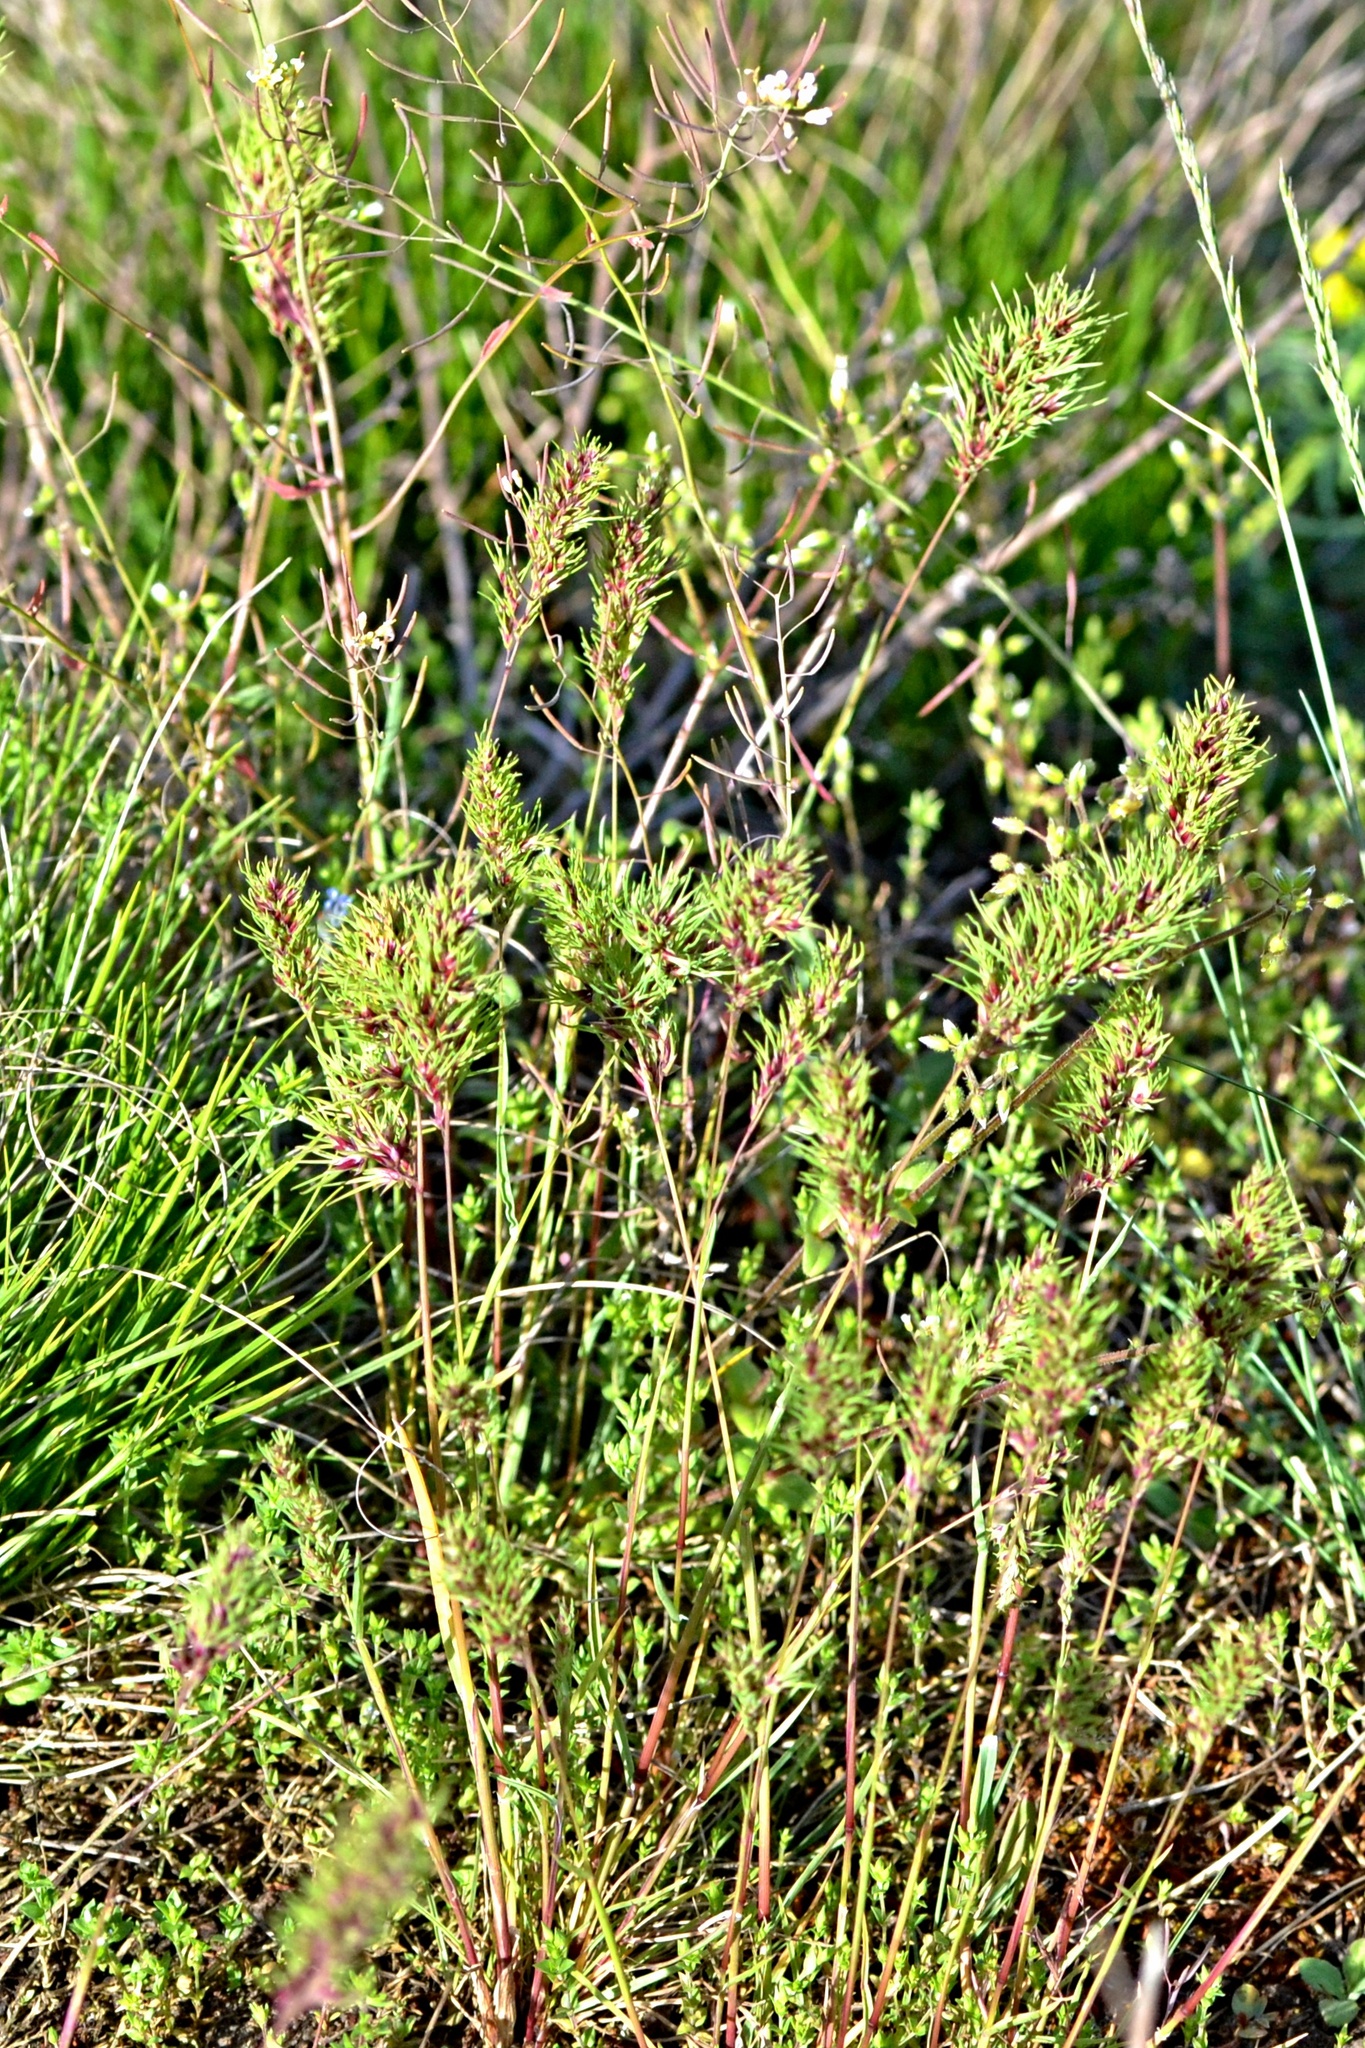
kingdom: Plantae
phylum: Tracheophyta
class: Liliopsida
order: Poales
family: Poaceae
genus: Poa
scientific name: Poa bulbosa
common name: Bulbous bluegrass
